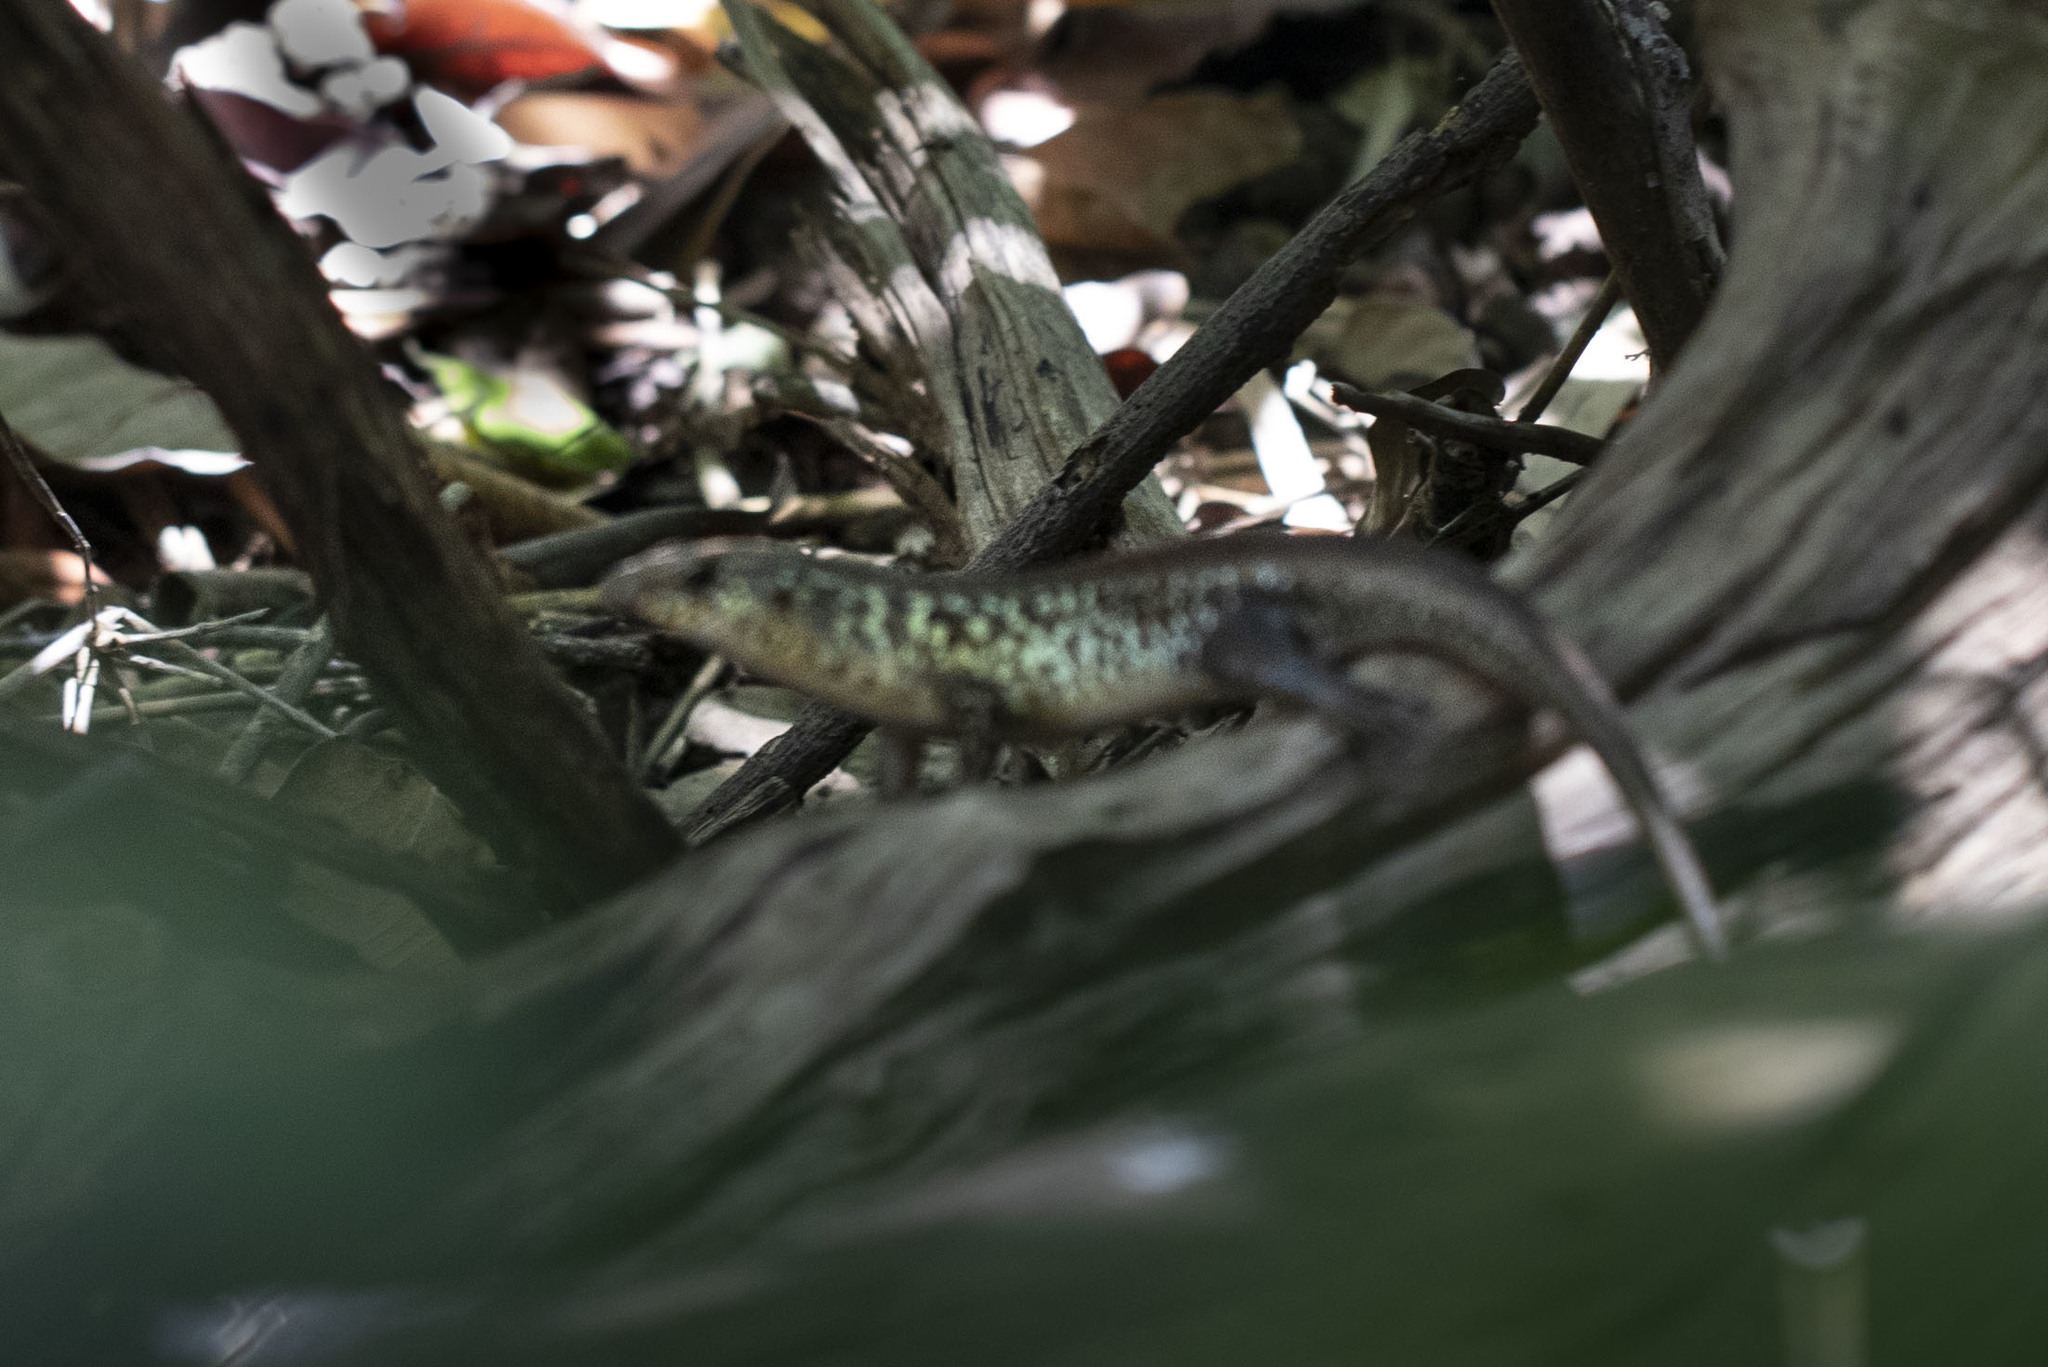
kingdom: Animalia
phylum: Chordata
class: Squamata
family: Scincidae
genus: Eutropis
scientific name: Eutropis andamanensis
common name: Andaman islands grassskink
